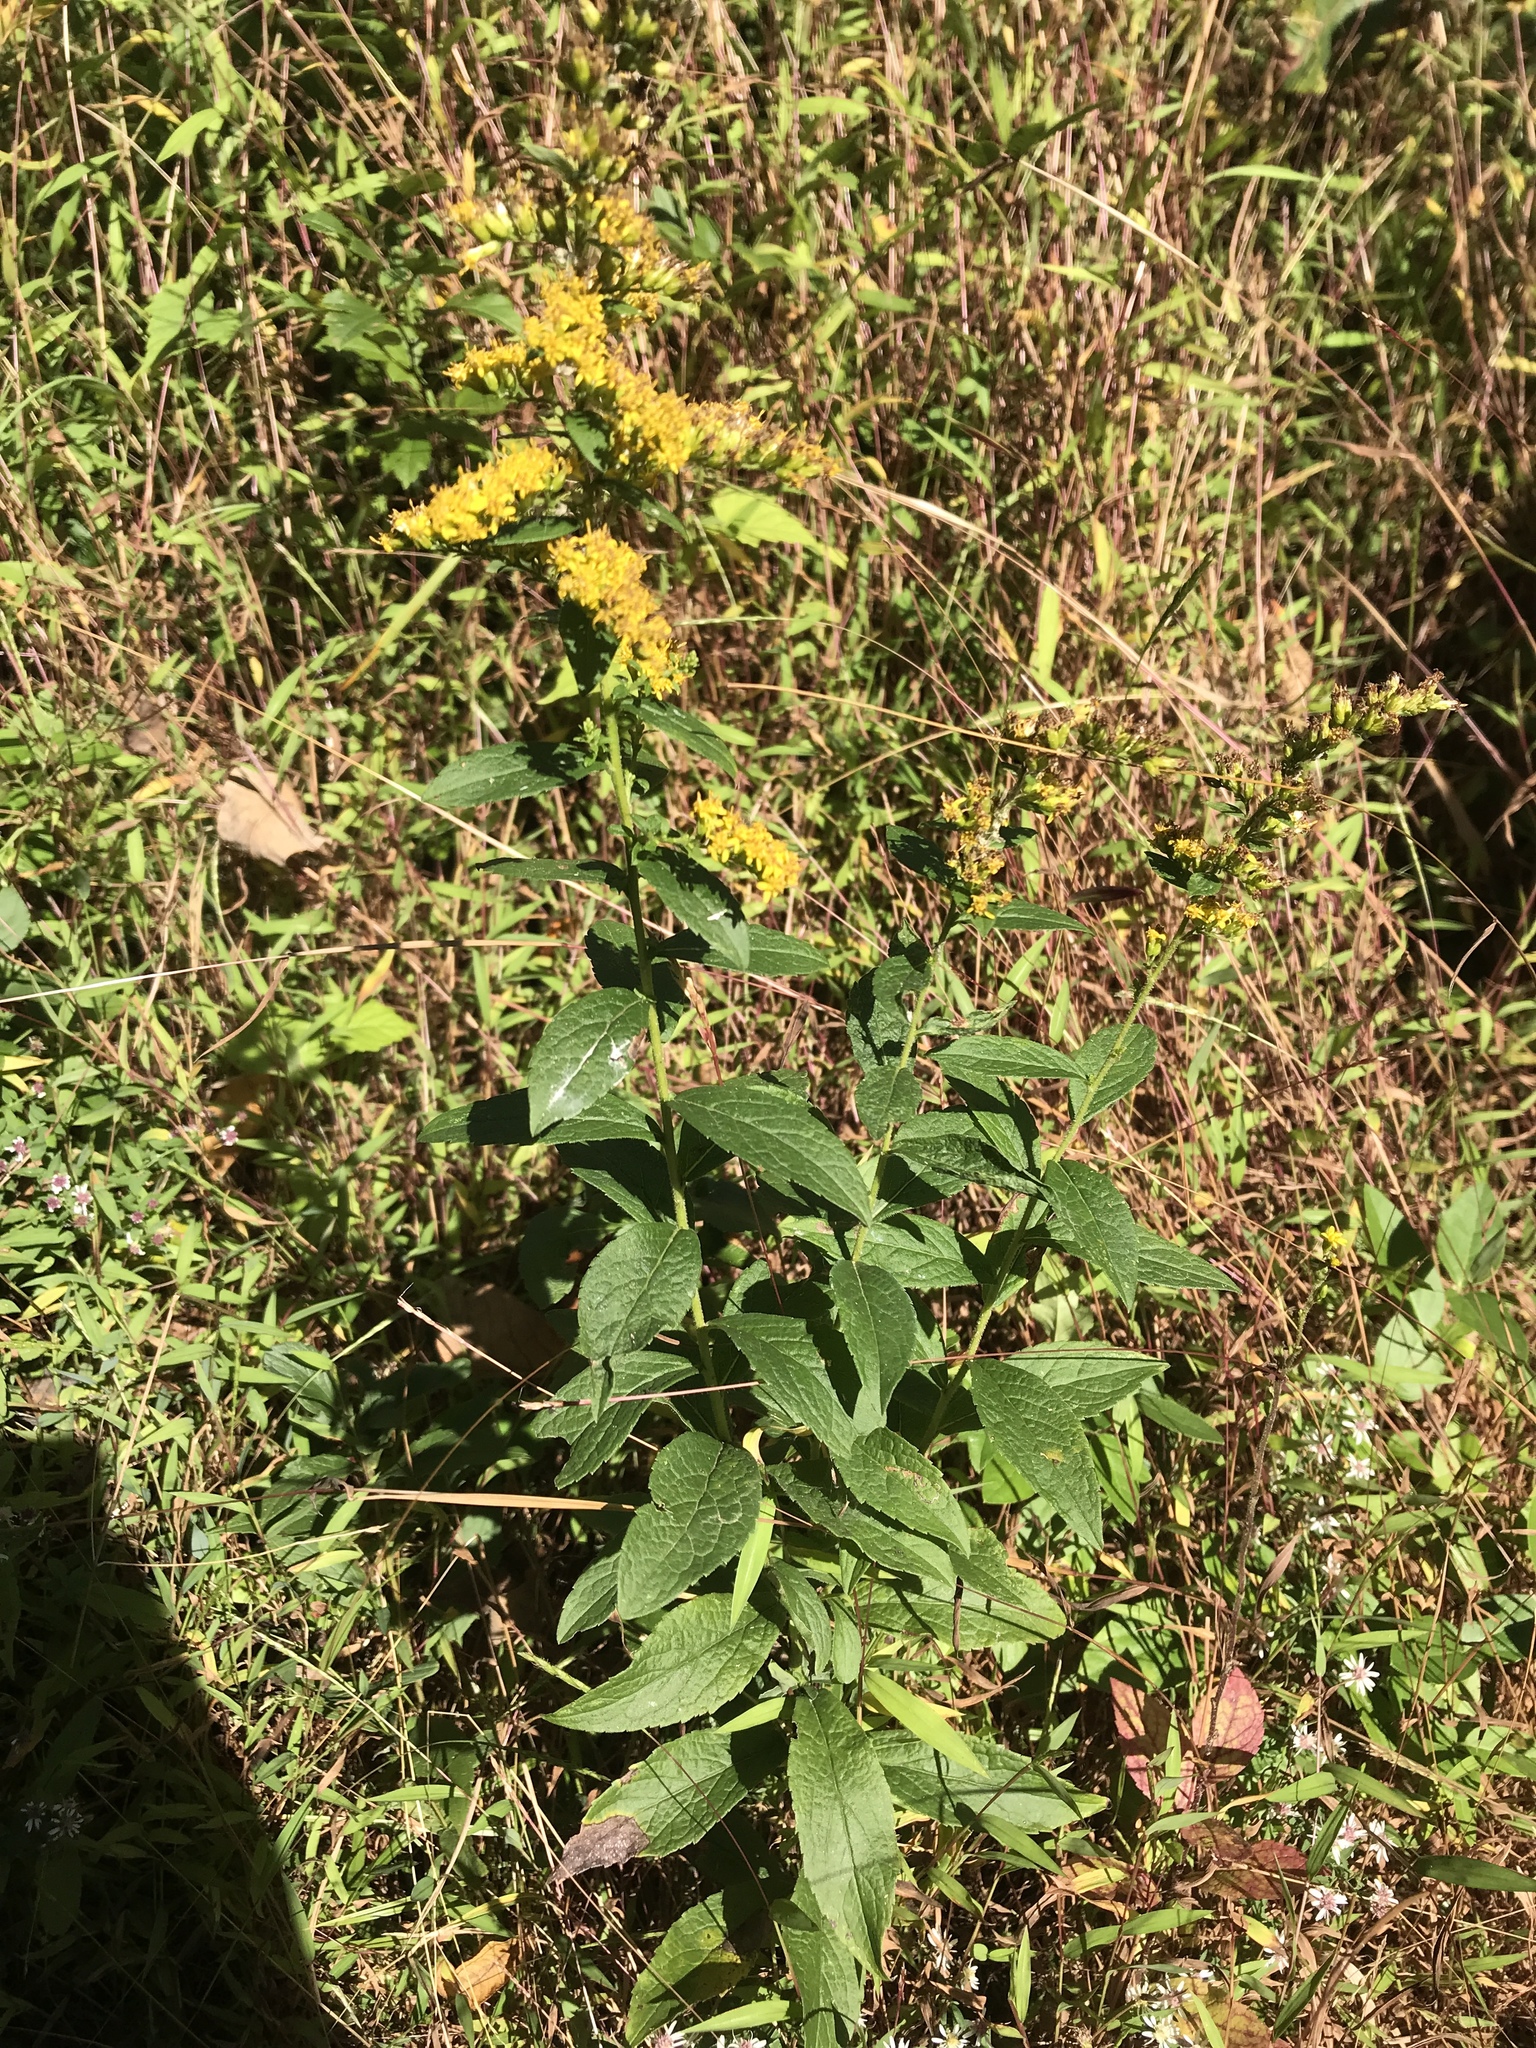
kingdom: Plantae
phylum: Tracheophyta
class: Magnoliopsida
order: Asterales
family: Asteraceae
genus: Solidago
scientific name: Solidago rugosa
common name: Rough-stemmed goldenrod
